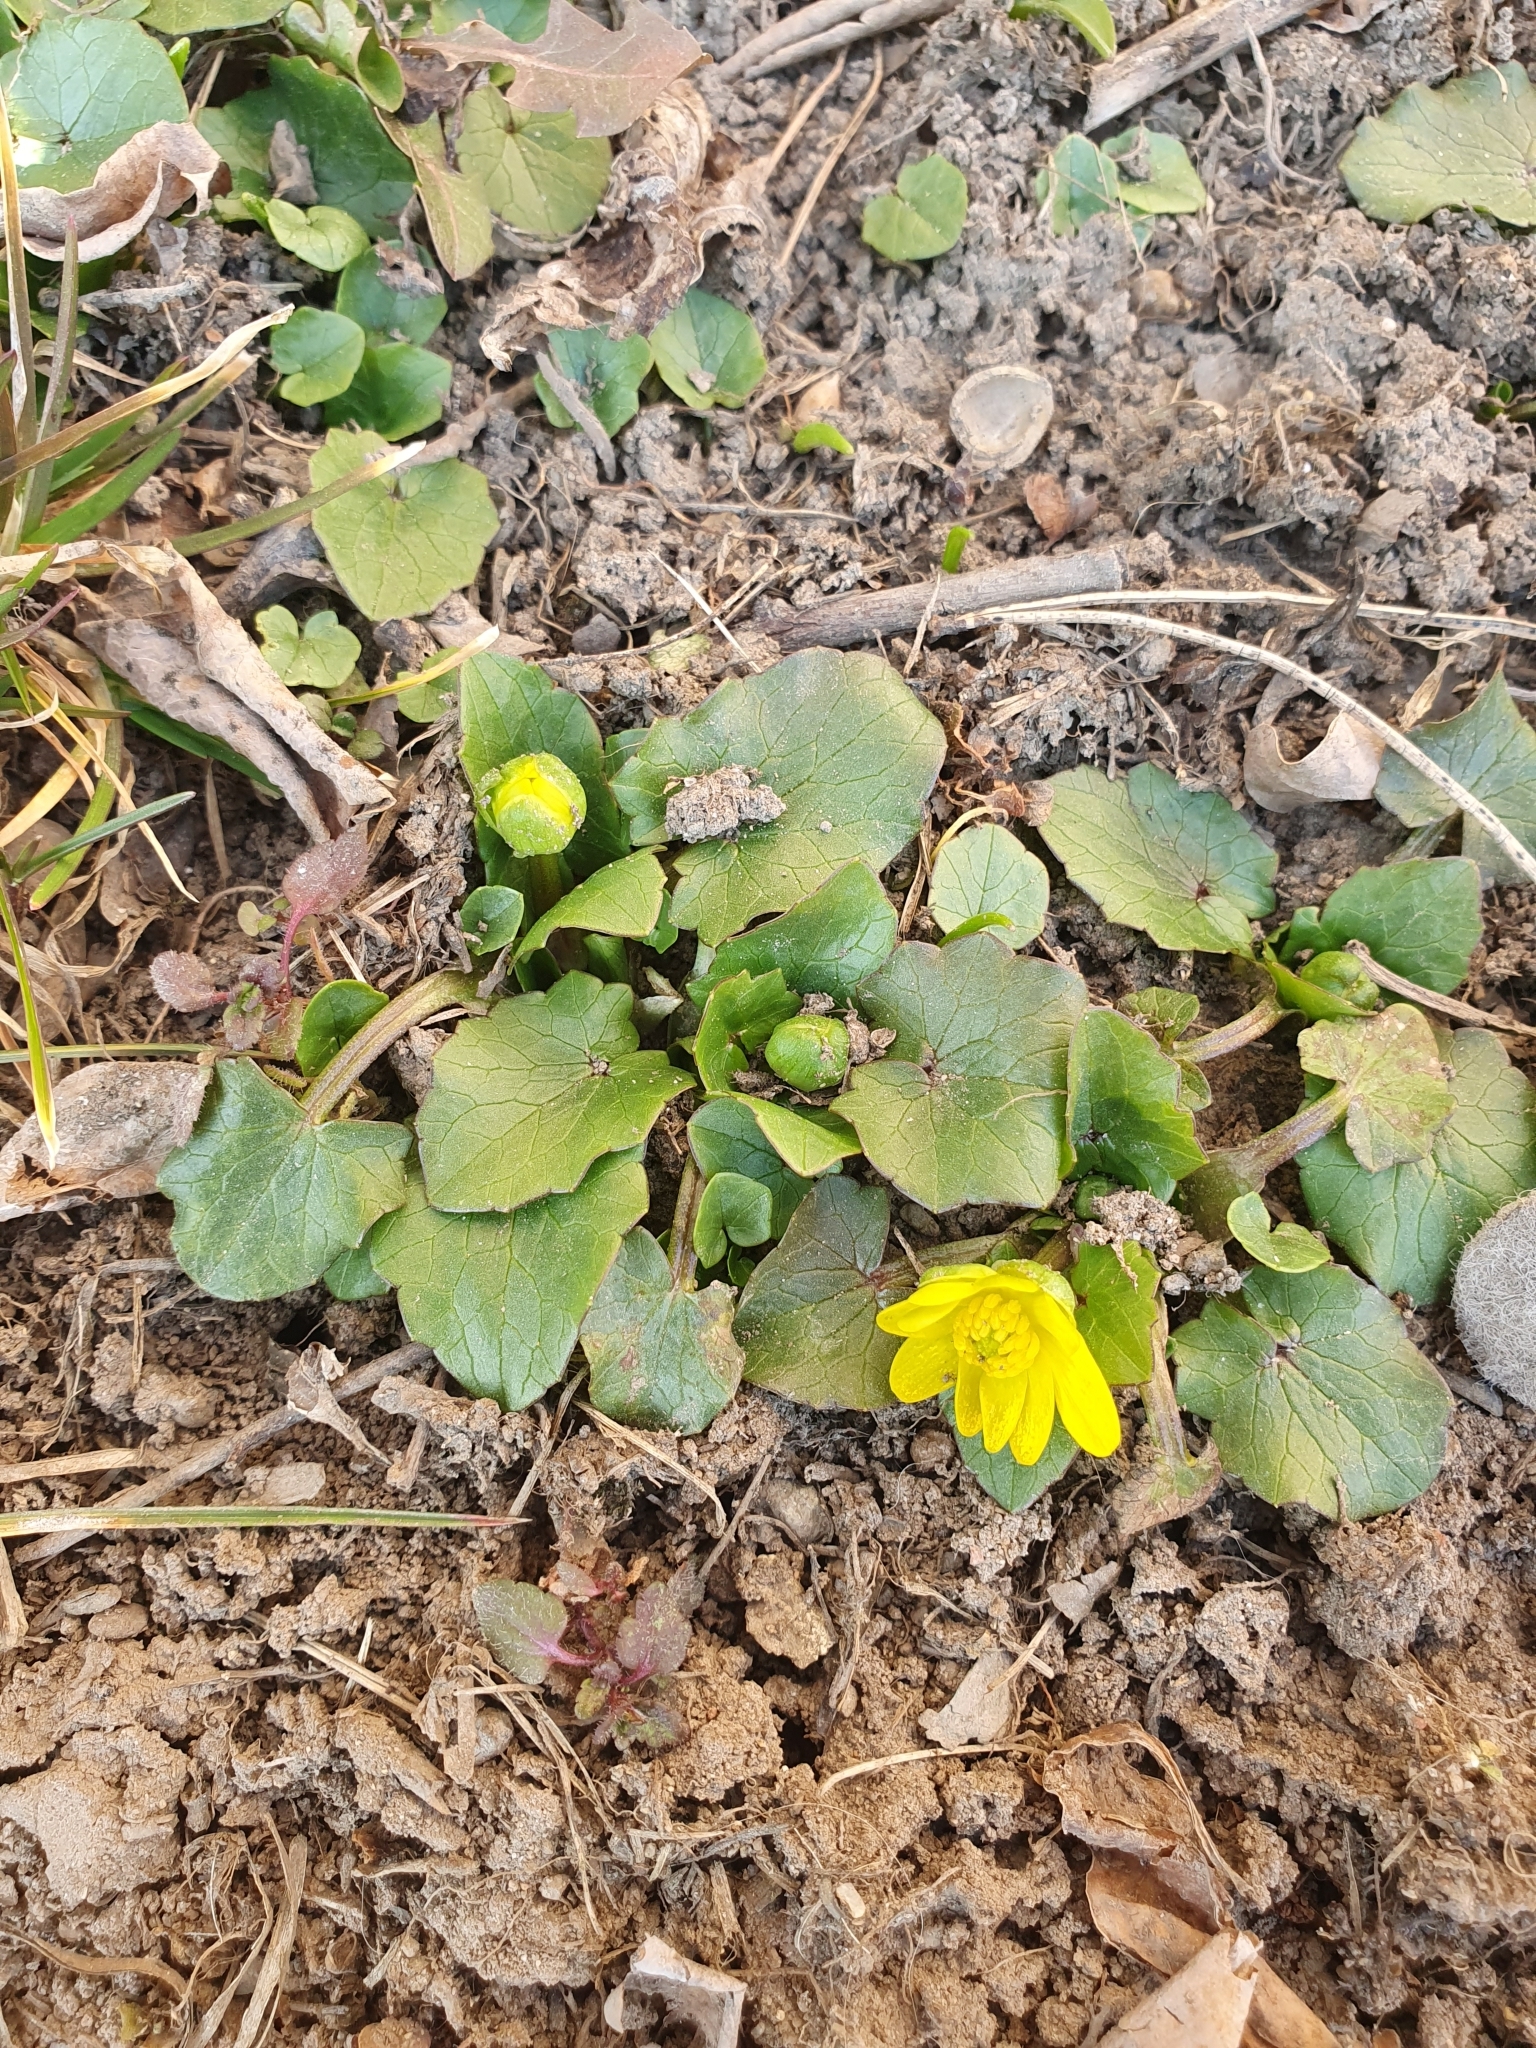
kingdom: Plantae
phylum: Tracheophyta
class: Magnoliopsida
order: Ranunculales
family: Ranunculaceae
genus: Ficaria
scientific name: Ficaria verna
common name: Lesser celandine
